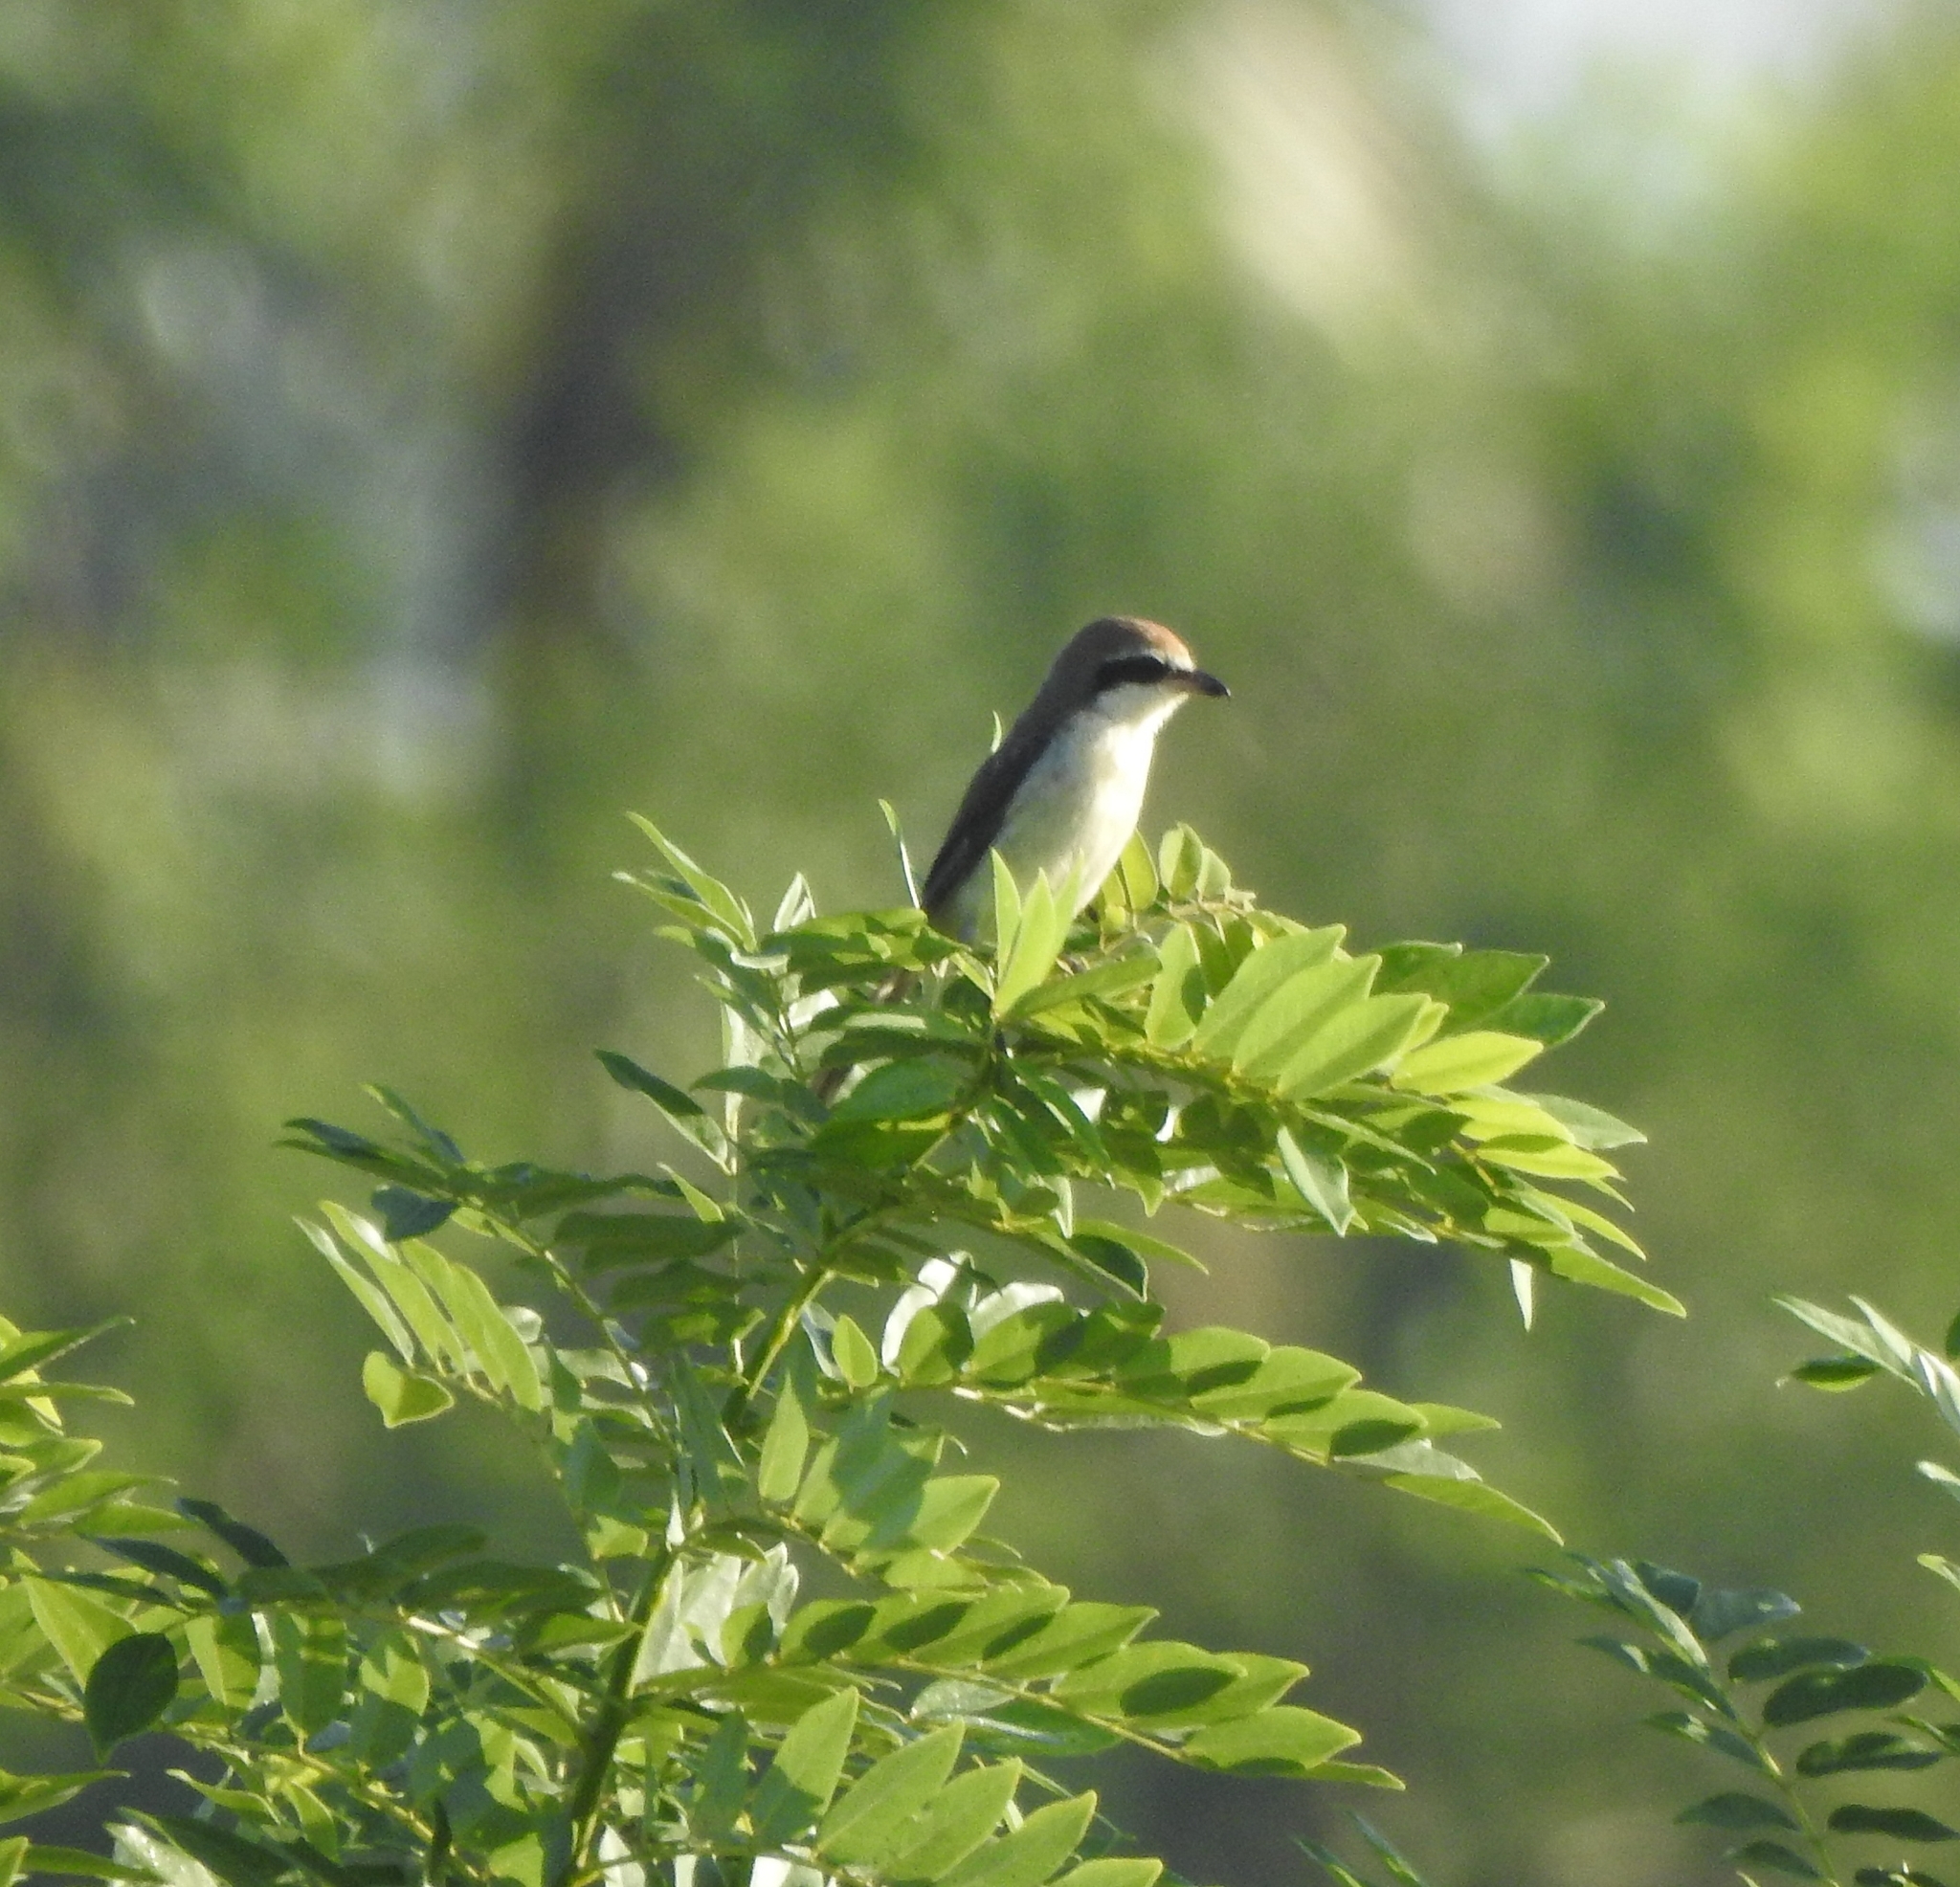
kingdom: Animalia
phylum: Chordata
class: Aves
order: Passeriformes
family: Laniidae
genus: Lanius
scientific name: Lanius cristatus
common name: Brown shrike
